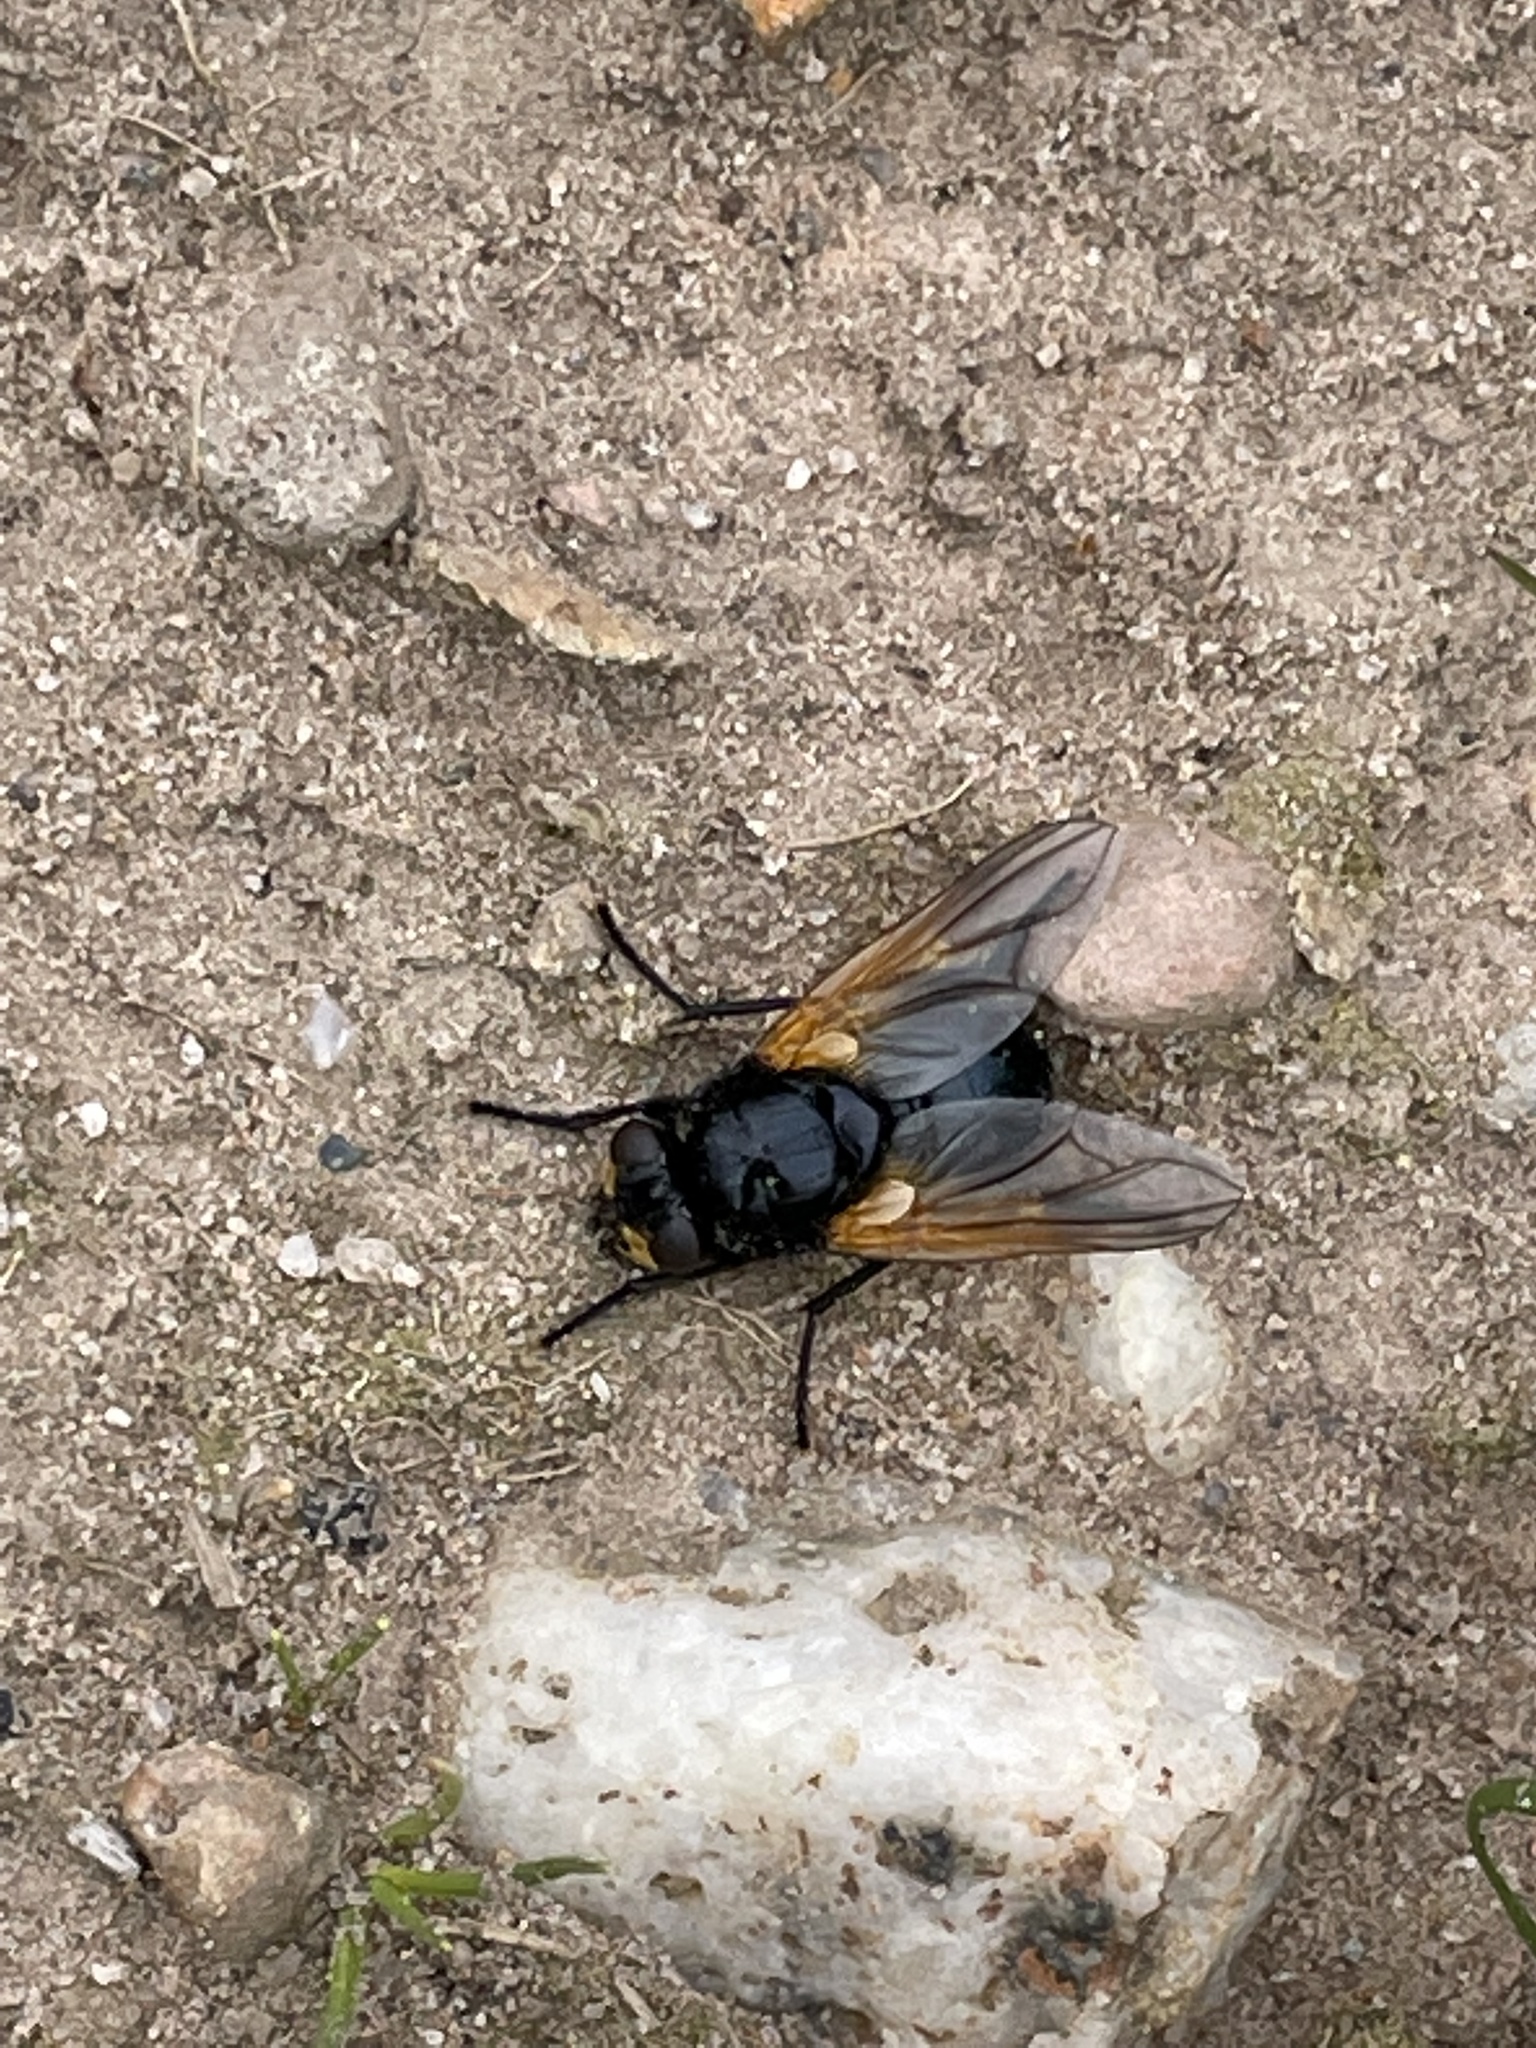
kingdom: Animalia
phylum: Arthropoda
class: Insecta
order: Diptera
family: Muscidae
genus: Mesembrina
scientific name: Mesembrina meridiana
